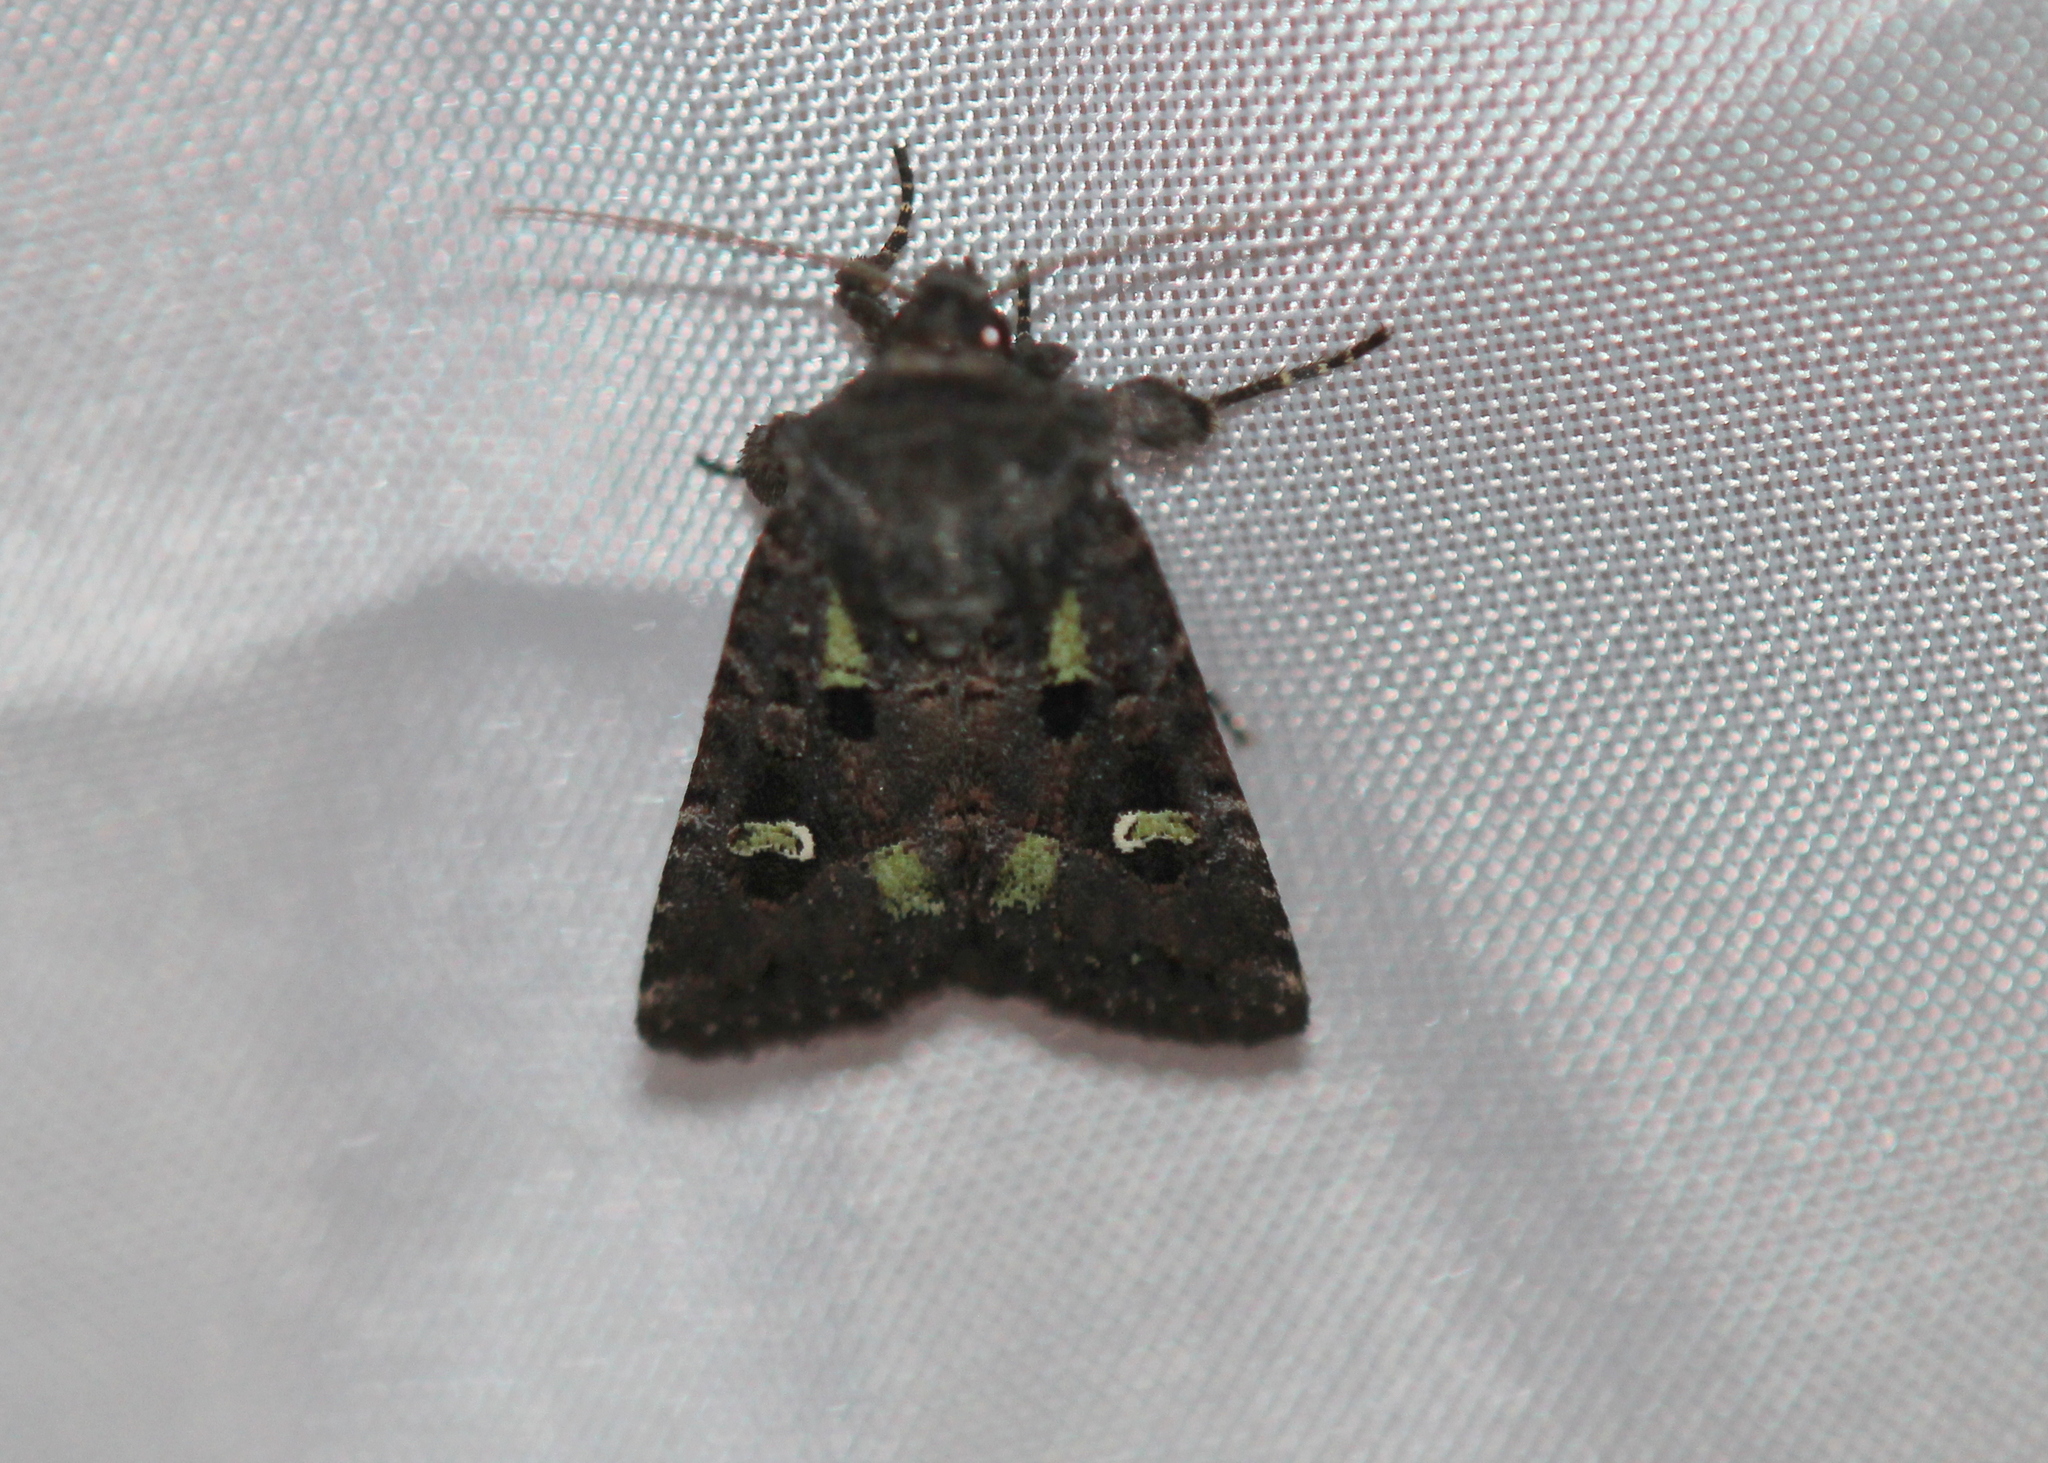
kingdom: Animalia
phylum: Arthropoda
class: Insecta
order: Lepidoptera
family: Noctuidae
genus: Lacinipolia
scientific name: Lacinipolia renigera
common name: Kidney-spotted minor
